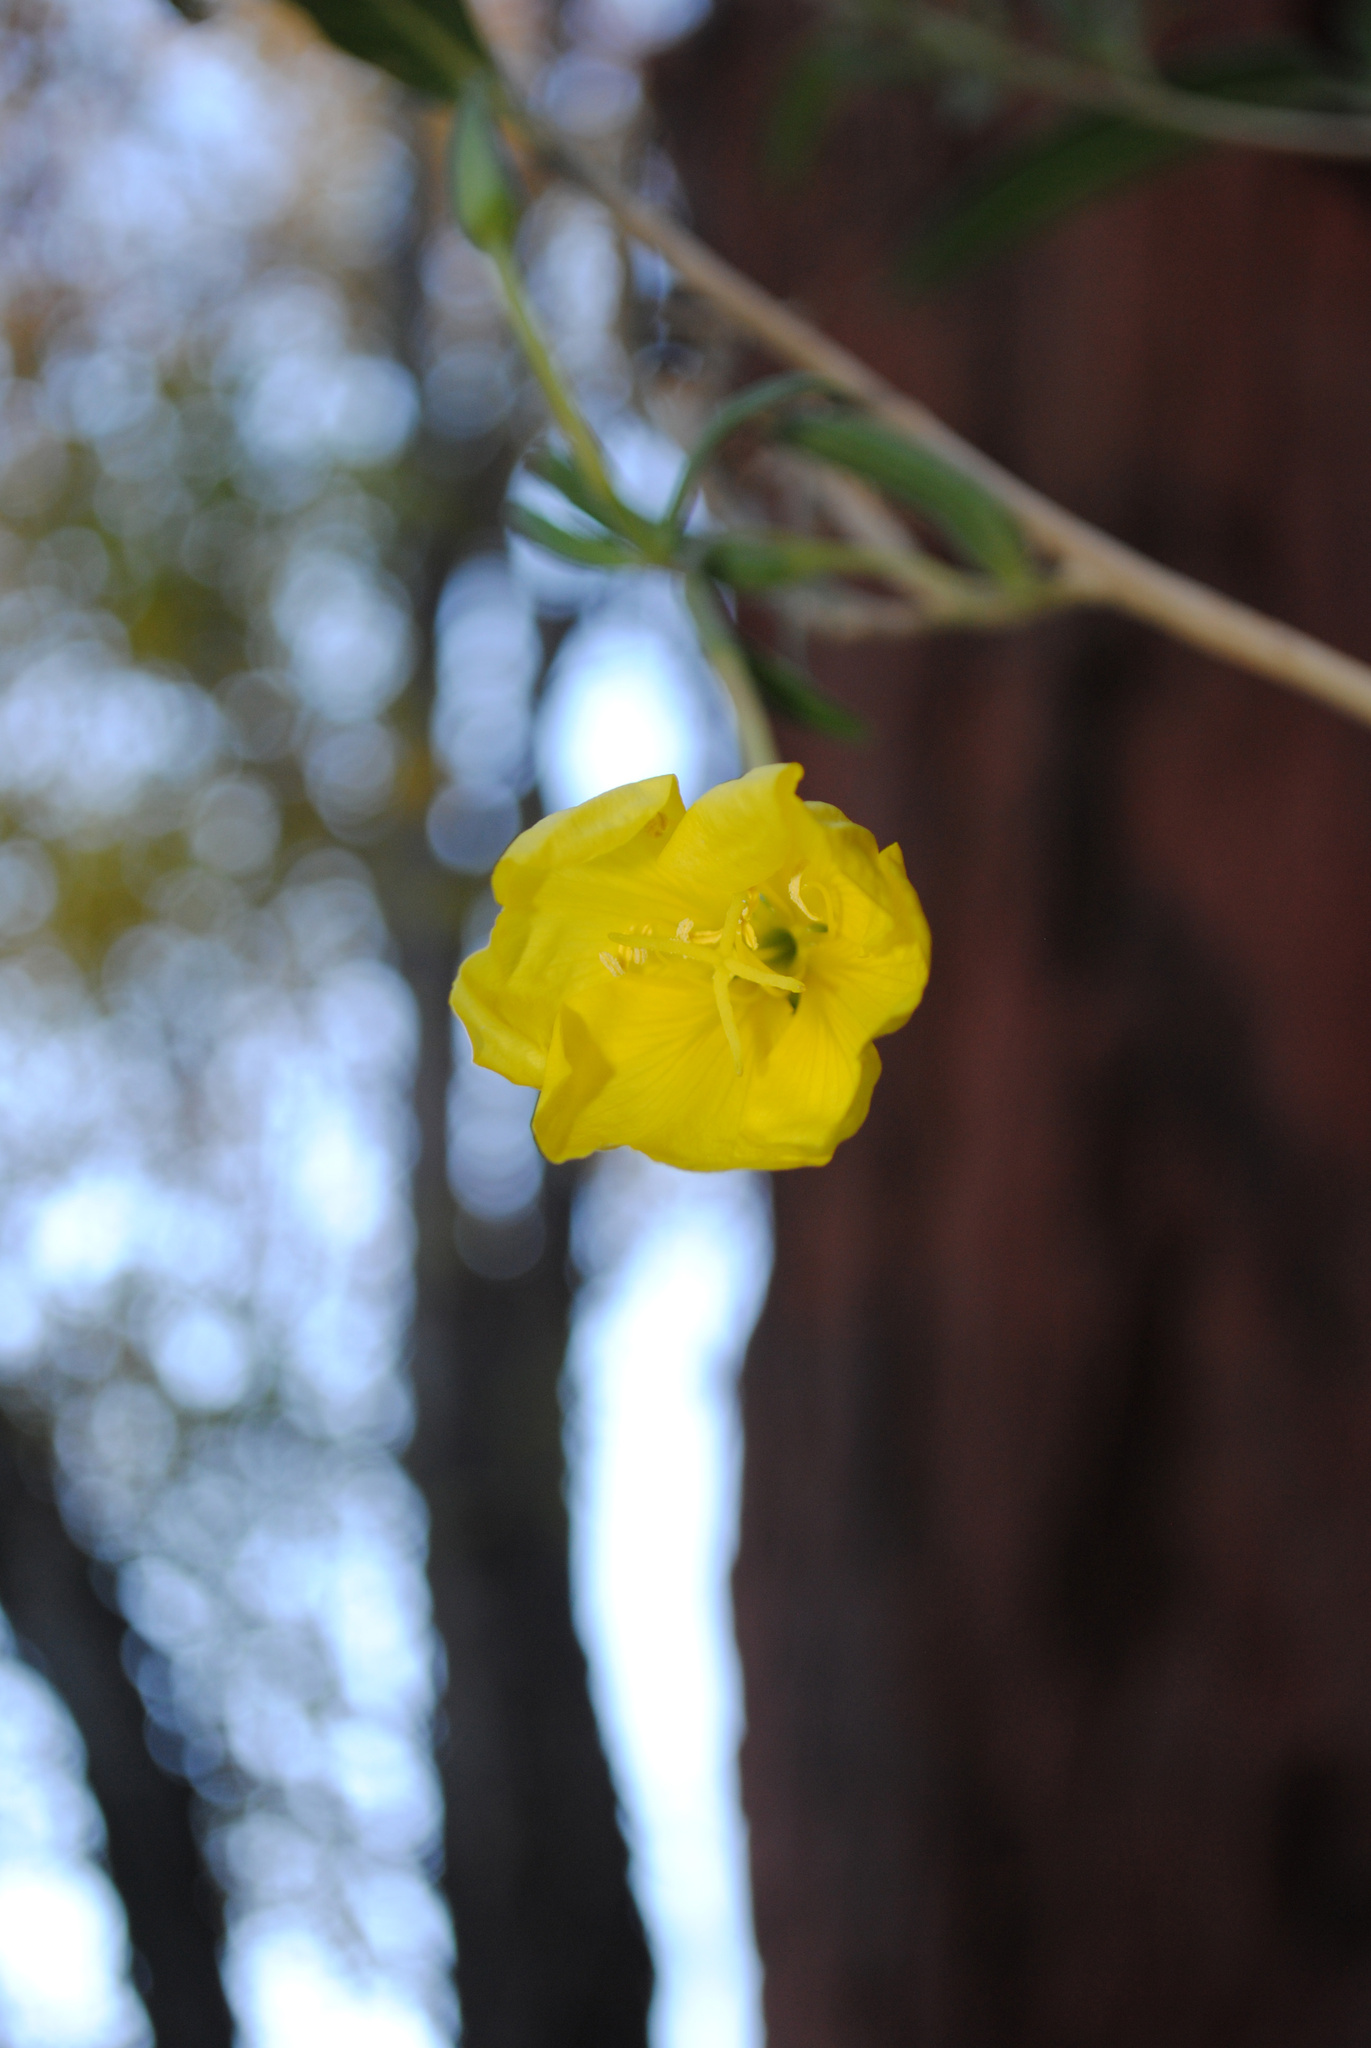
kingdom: Plantae
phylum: Tracheophyta
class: Magnoliopsida
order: Myrtales
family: Onagraceae
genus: Oenothera
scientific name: Oenothera longissima
